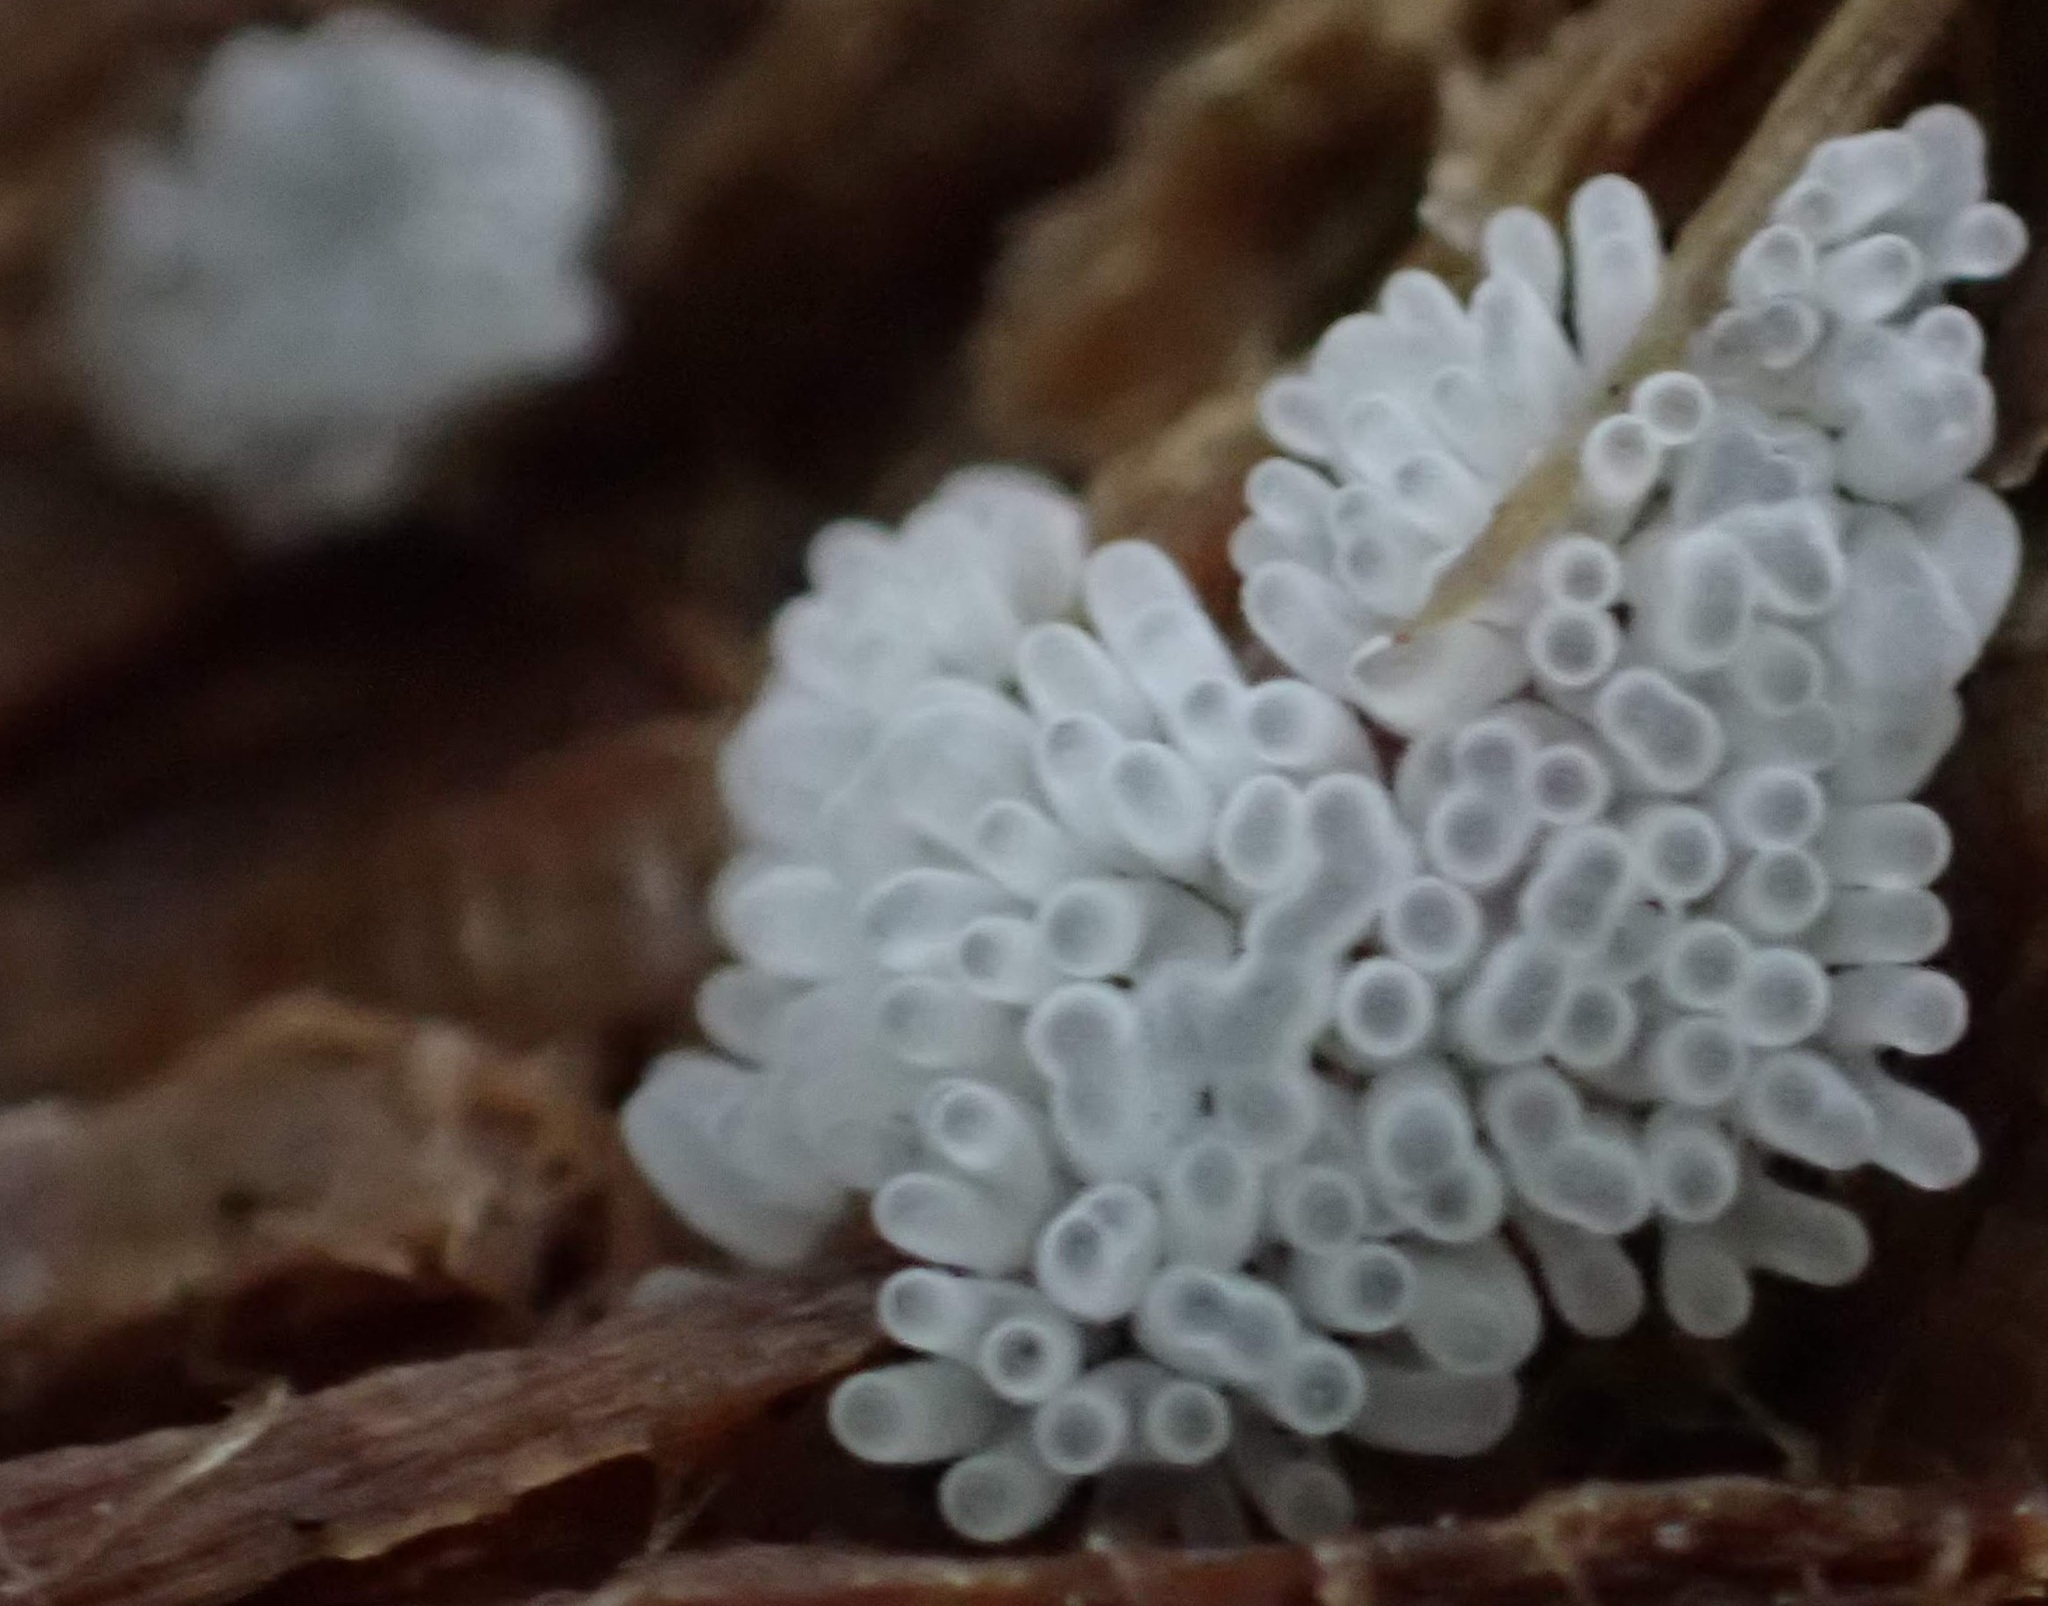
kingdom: Protozoa
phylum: Mycetozoa
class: Protosteliomycetes
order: Ceratiomyxales
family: Ceratiomyxaceae
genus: Ceratiomyxa
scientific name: Ceratiomyxa fruticulosa
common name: Honeycomb coral slime mold
